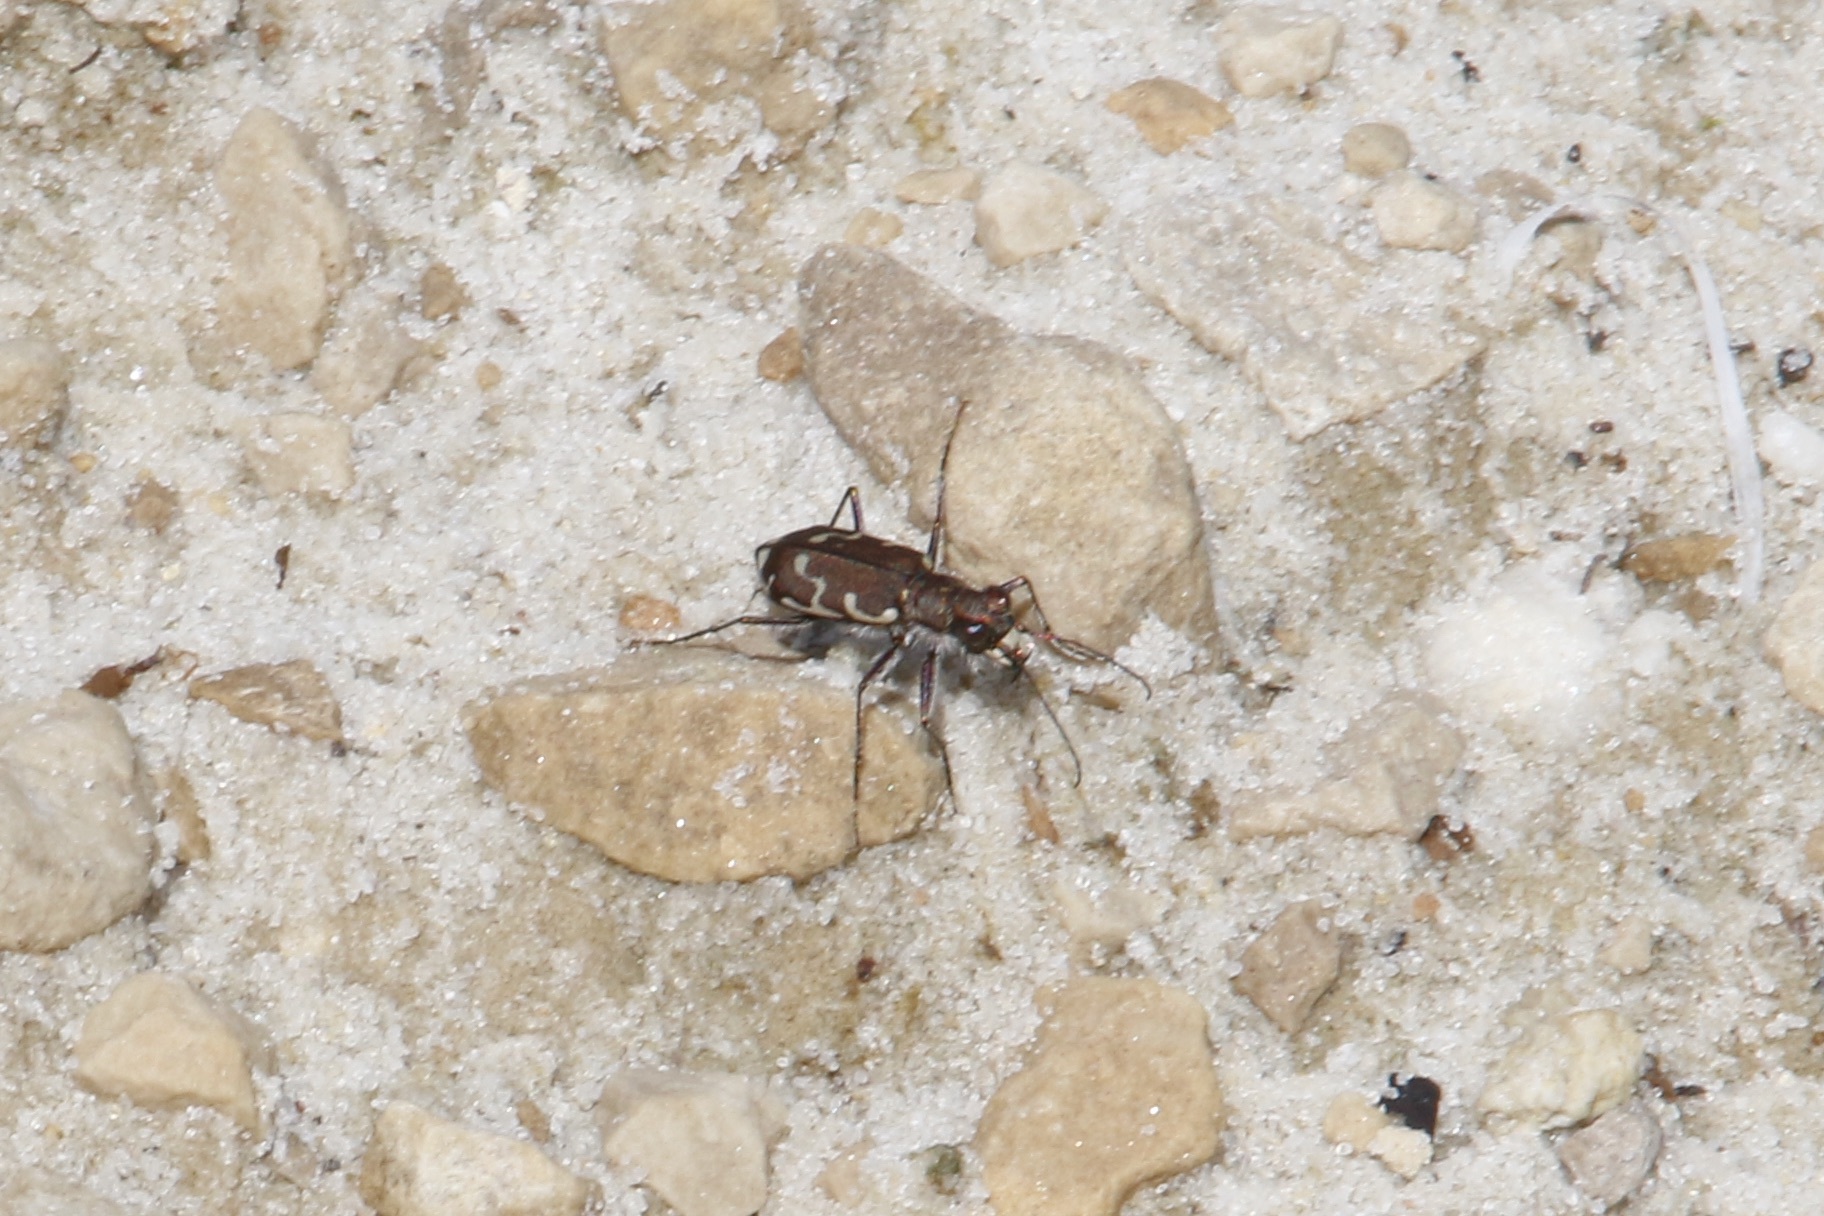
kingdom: Animalia
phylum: Arthropoda
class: Insecta
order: Coleoptera
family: Carabidae
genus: Cicindela
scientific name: Cicindela repanda
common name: Bronzed tiger beetle
